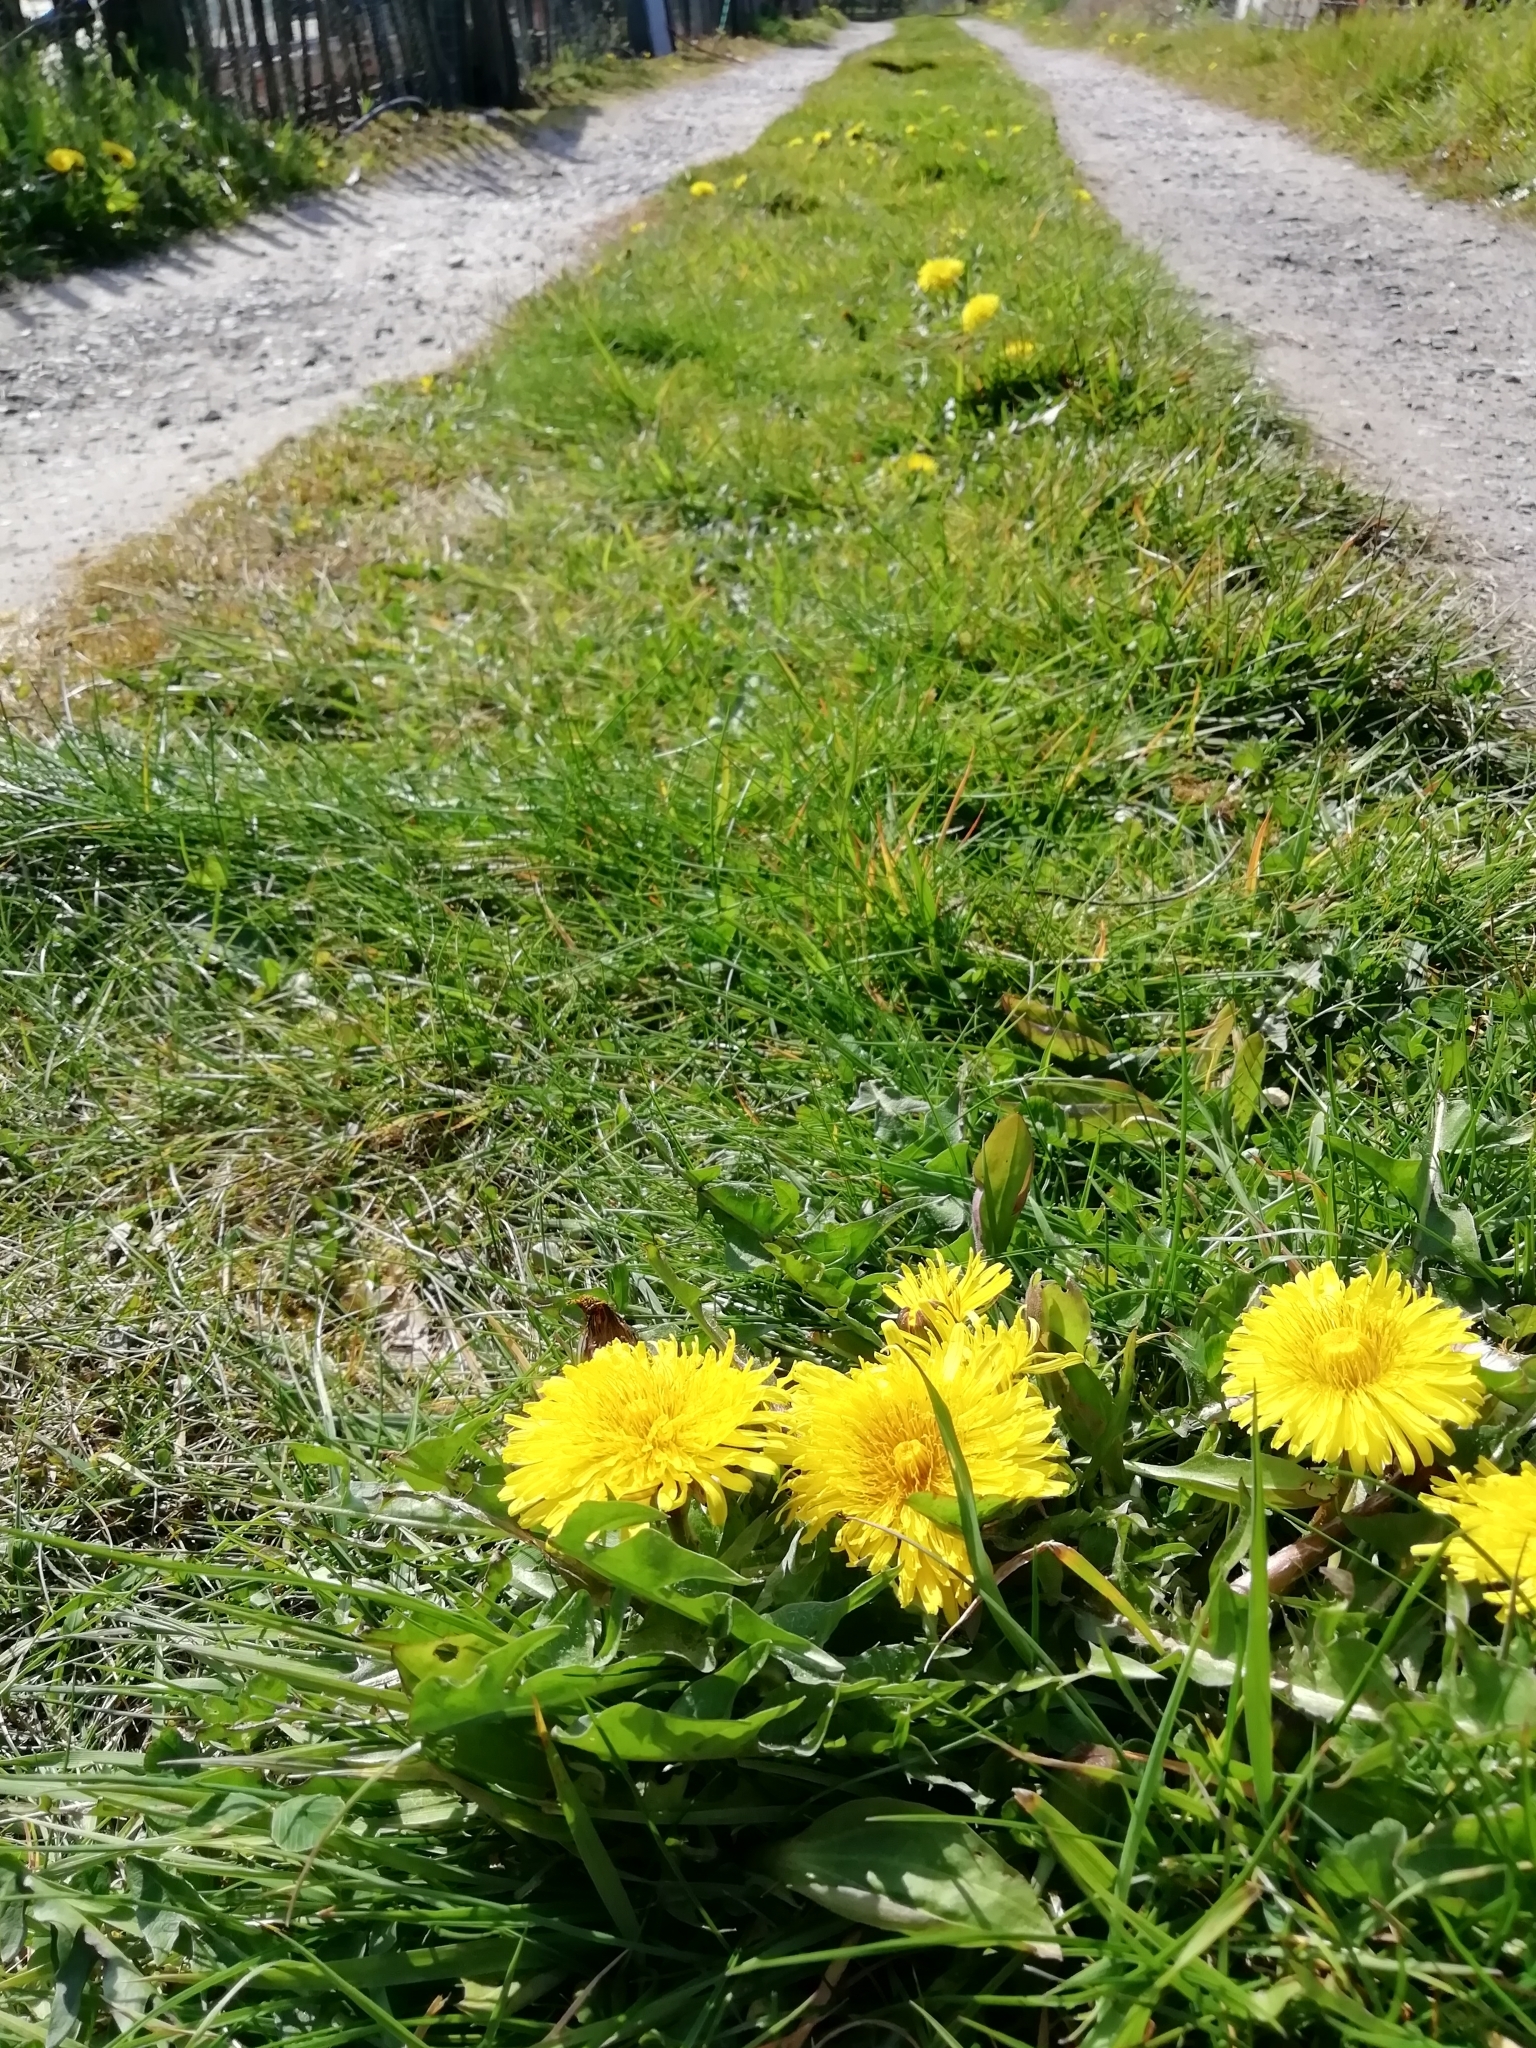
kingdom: Plantae
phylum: Tracheophyta
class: Magnoliopsida
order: Asterales
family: Asteraceae
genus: Taraxacum
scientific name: Taraxacum officinale
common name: Common dandelion
